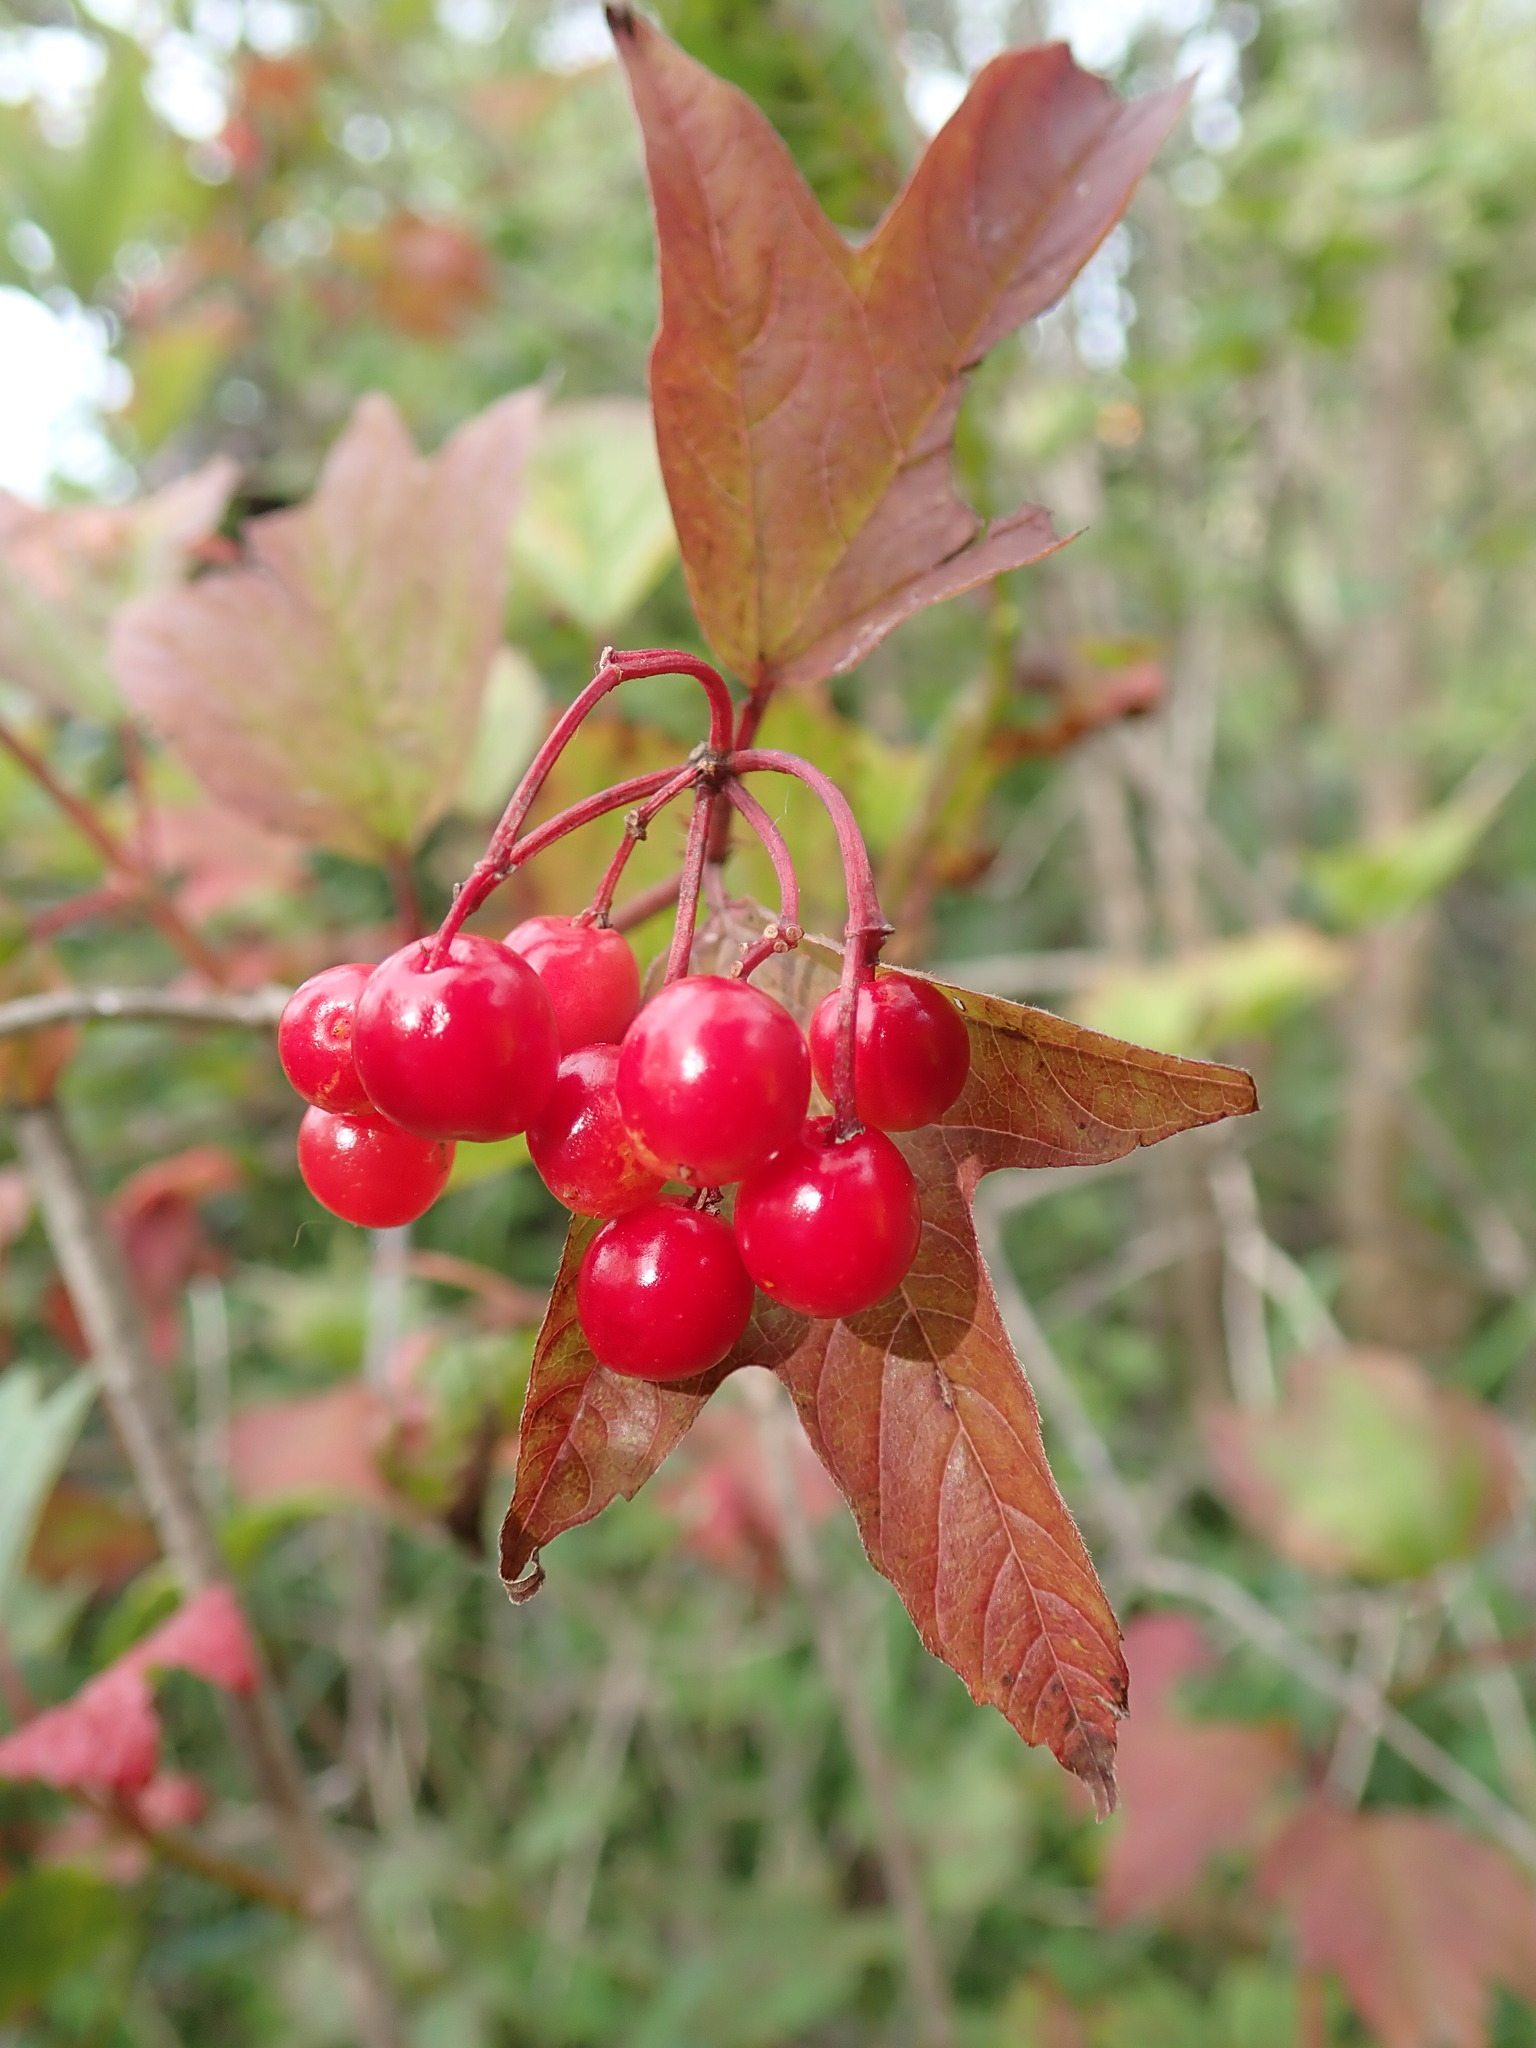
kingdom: Plantae
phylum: Tracheophyta
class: Magnoliopsida
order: Dipsacales
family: Viburnaceae
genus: Viburnum
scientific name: Viburnum trilobum
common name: American cranberrybush
